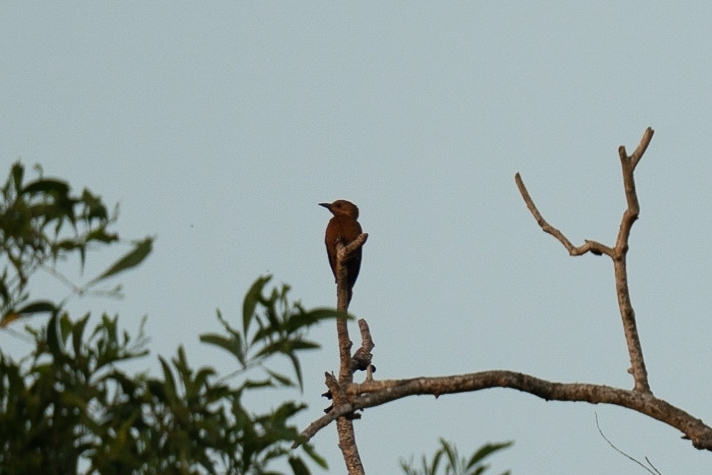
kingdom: Animalia
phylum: Chordata
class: Aves
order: Piciformes
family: Picidae
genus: Micropternus
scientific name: Micropternus brachyurus
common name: Rufous woodpecker
